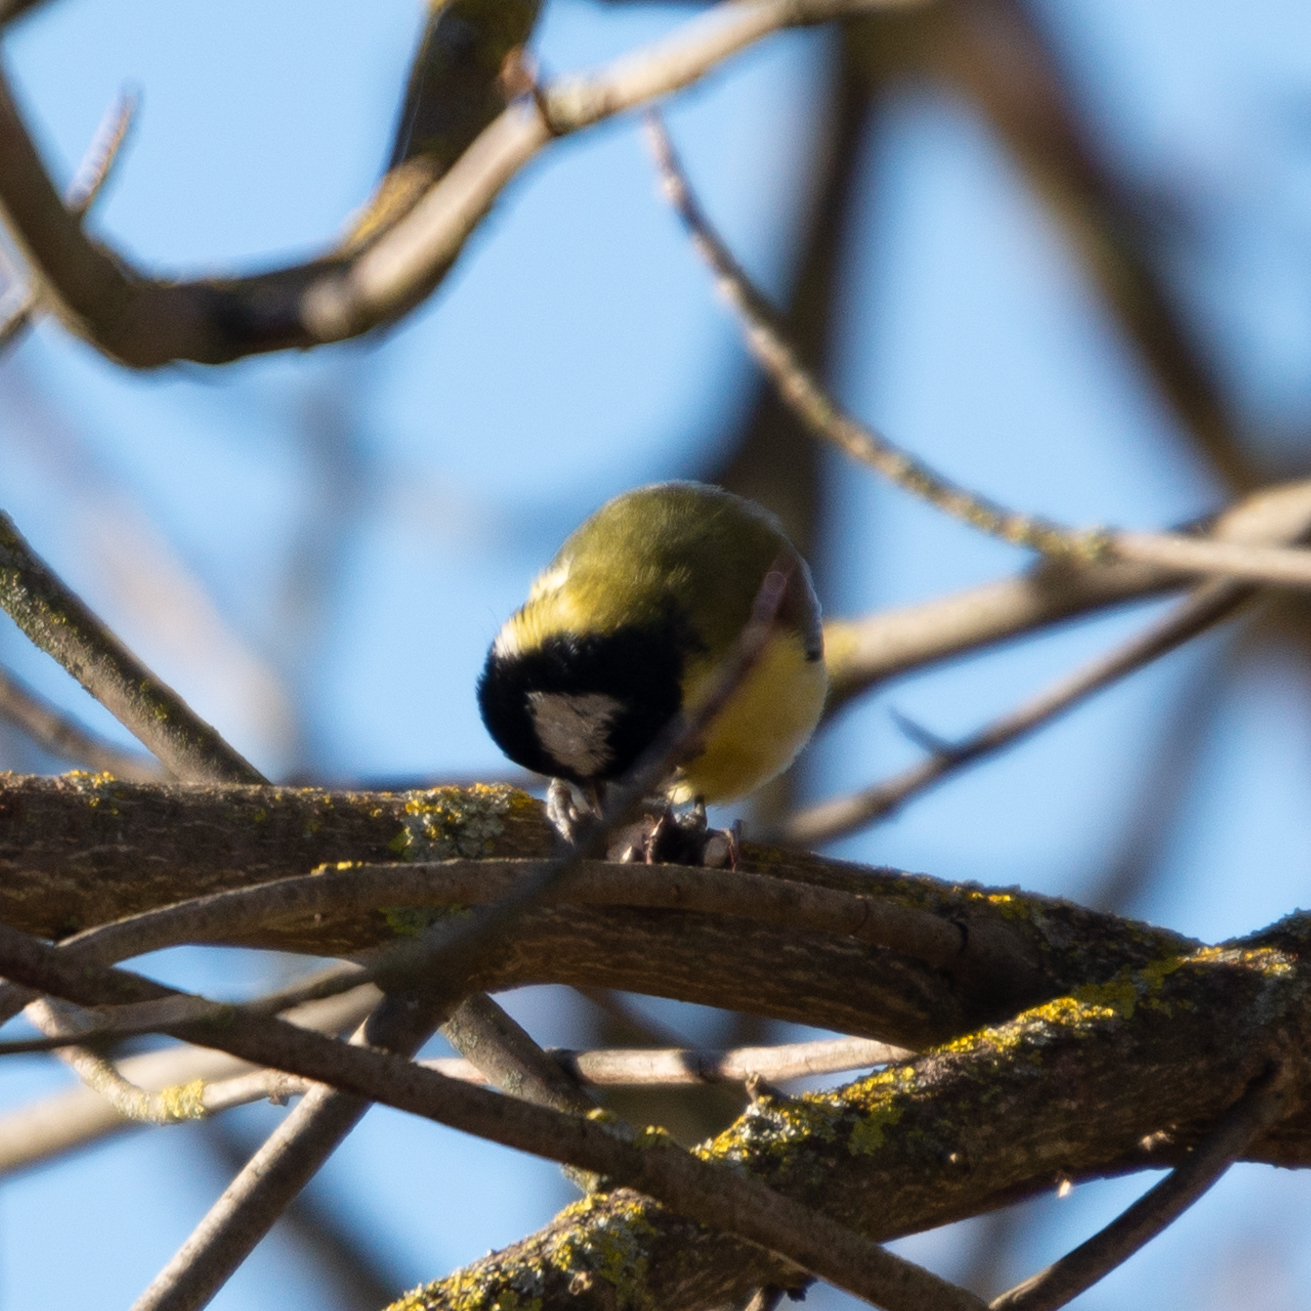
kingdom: Animalia
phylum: Chordata
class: Aves
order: Passeriformes
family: Paridae
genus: Parus
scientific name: Parus major
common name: Great tit
